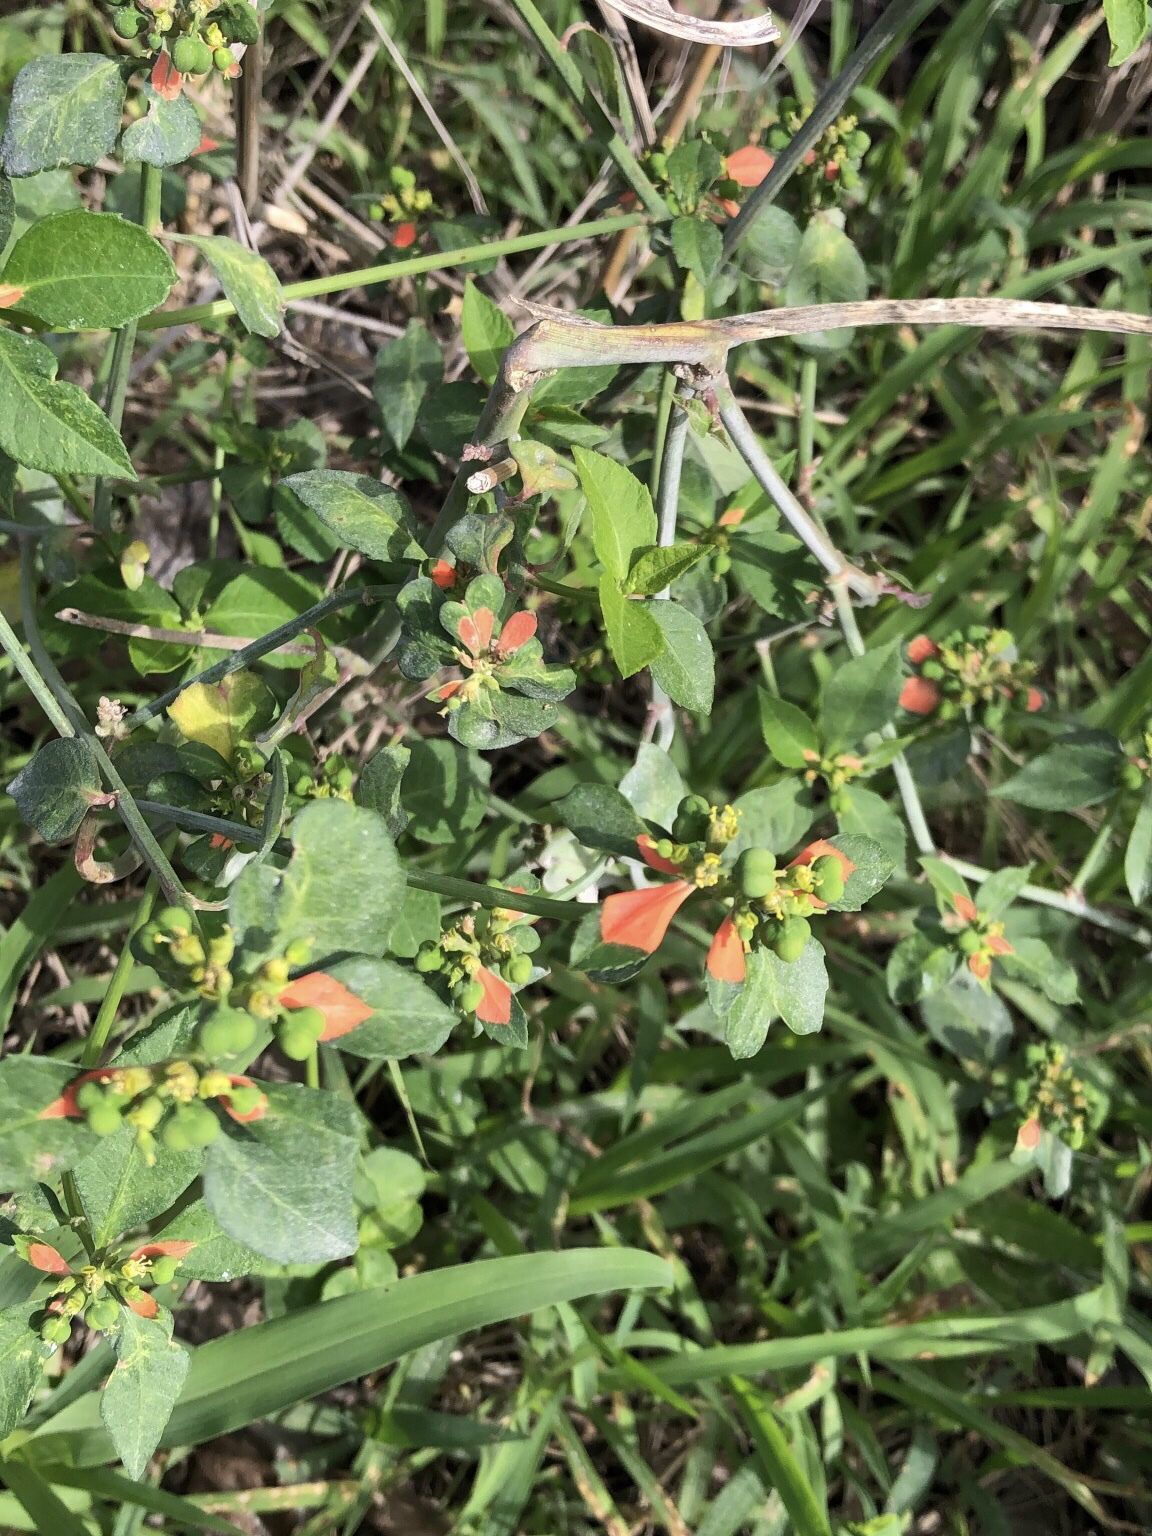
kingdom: Plantae
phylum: Tracheophyta
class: Magnoliopsida
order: Malpighiales
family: Euphorbiaceae
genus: Euphorbia
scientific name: Euphorbia heterophylla
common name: Mexican fireplant
